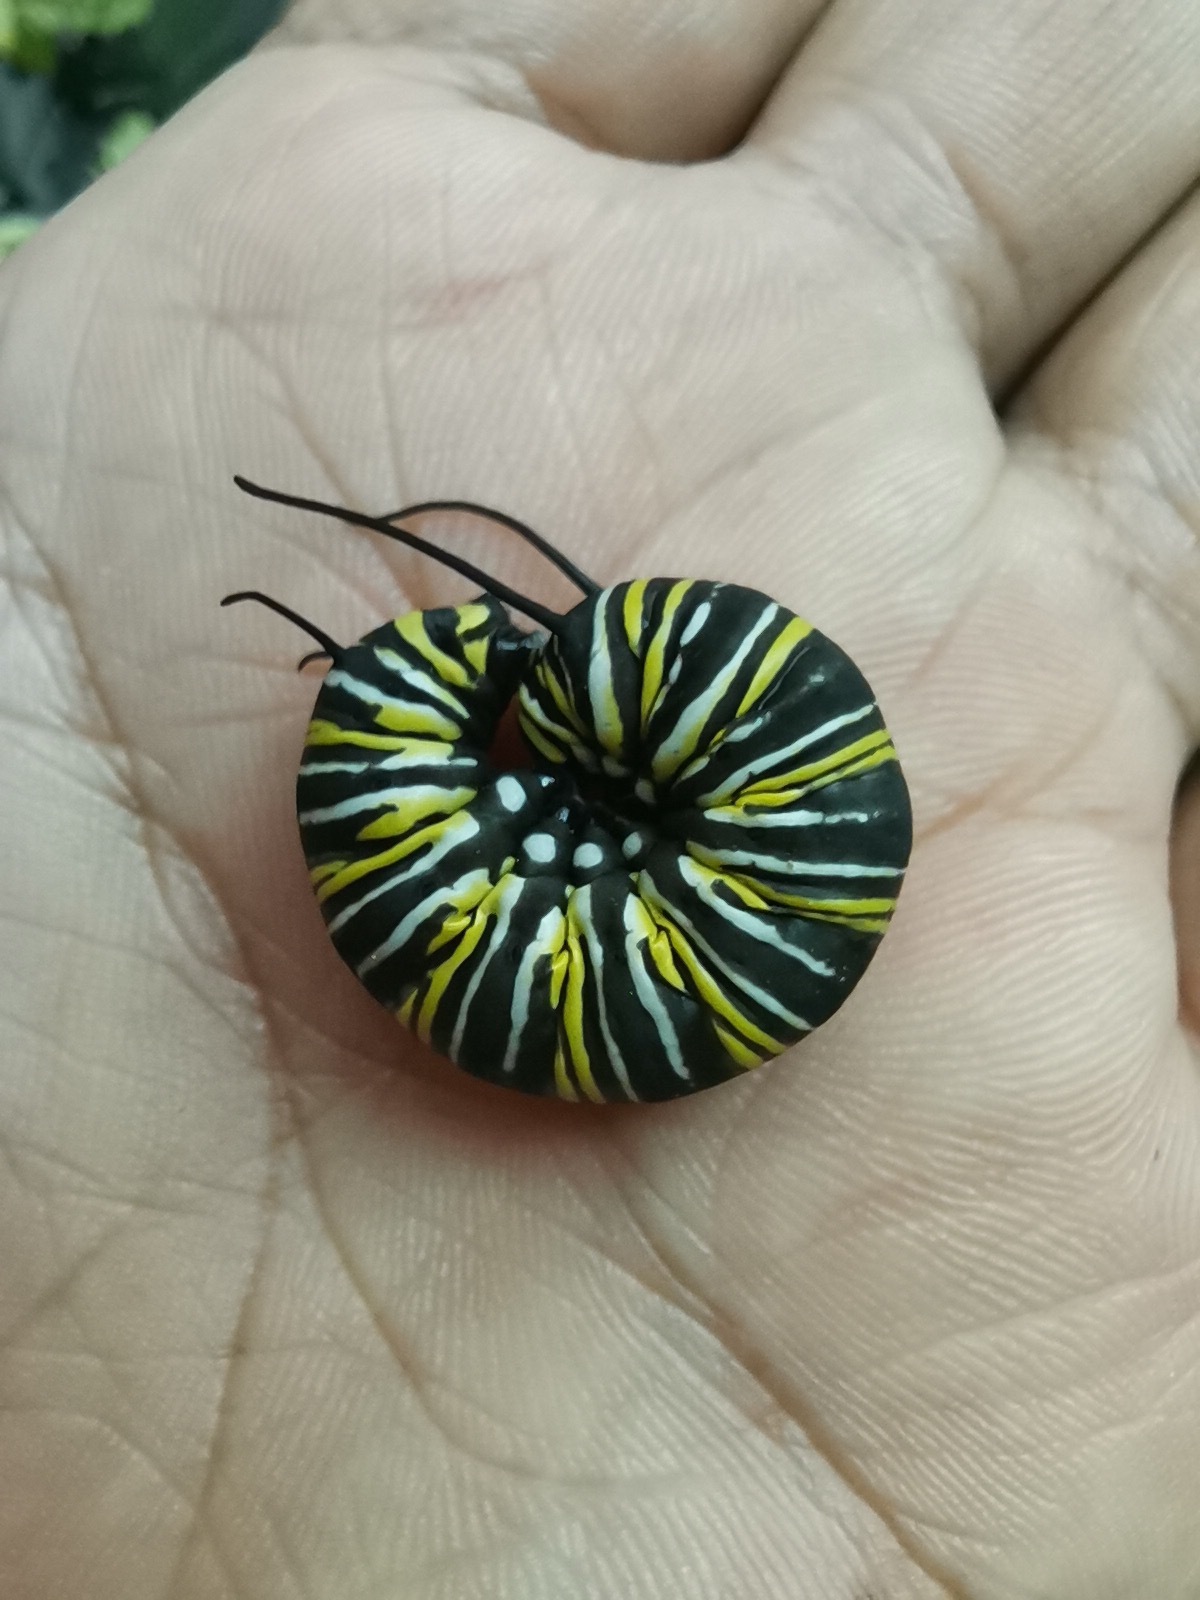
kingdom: Animalia
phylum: Arthropoda
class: Insecta
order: Lepidoptera
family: Nymphalidae
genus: Danaus
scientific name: Danaus plexippus
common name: Monarch
